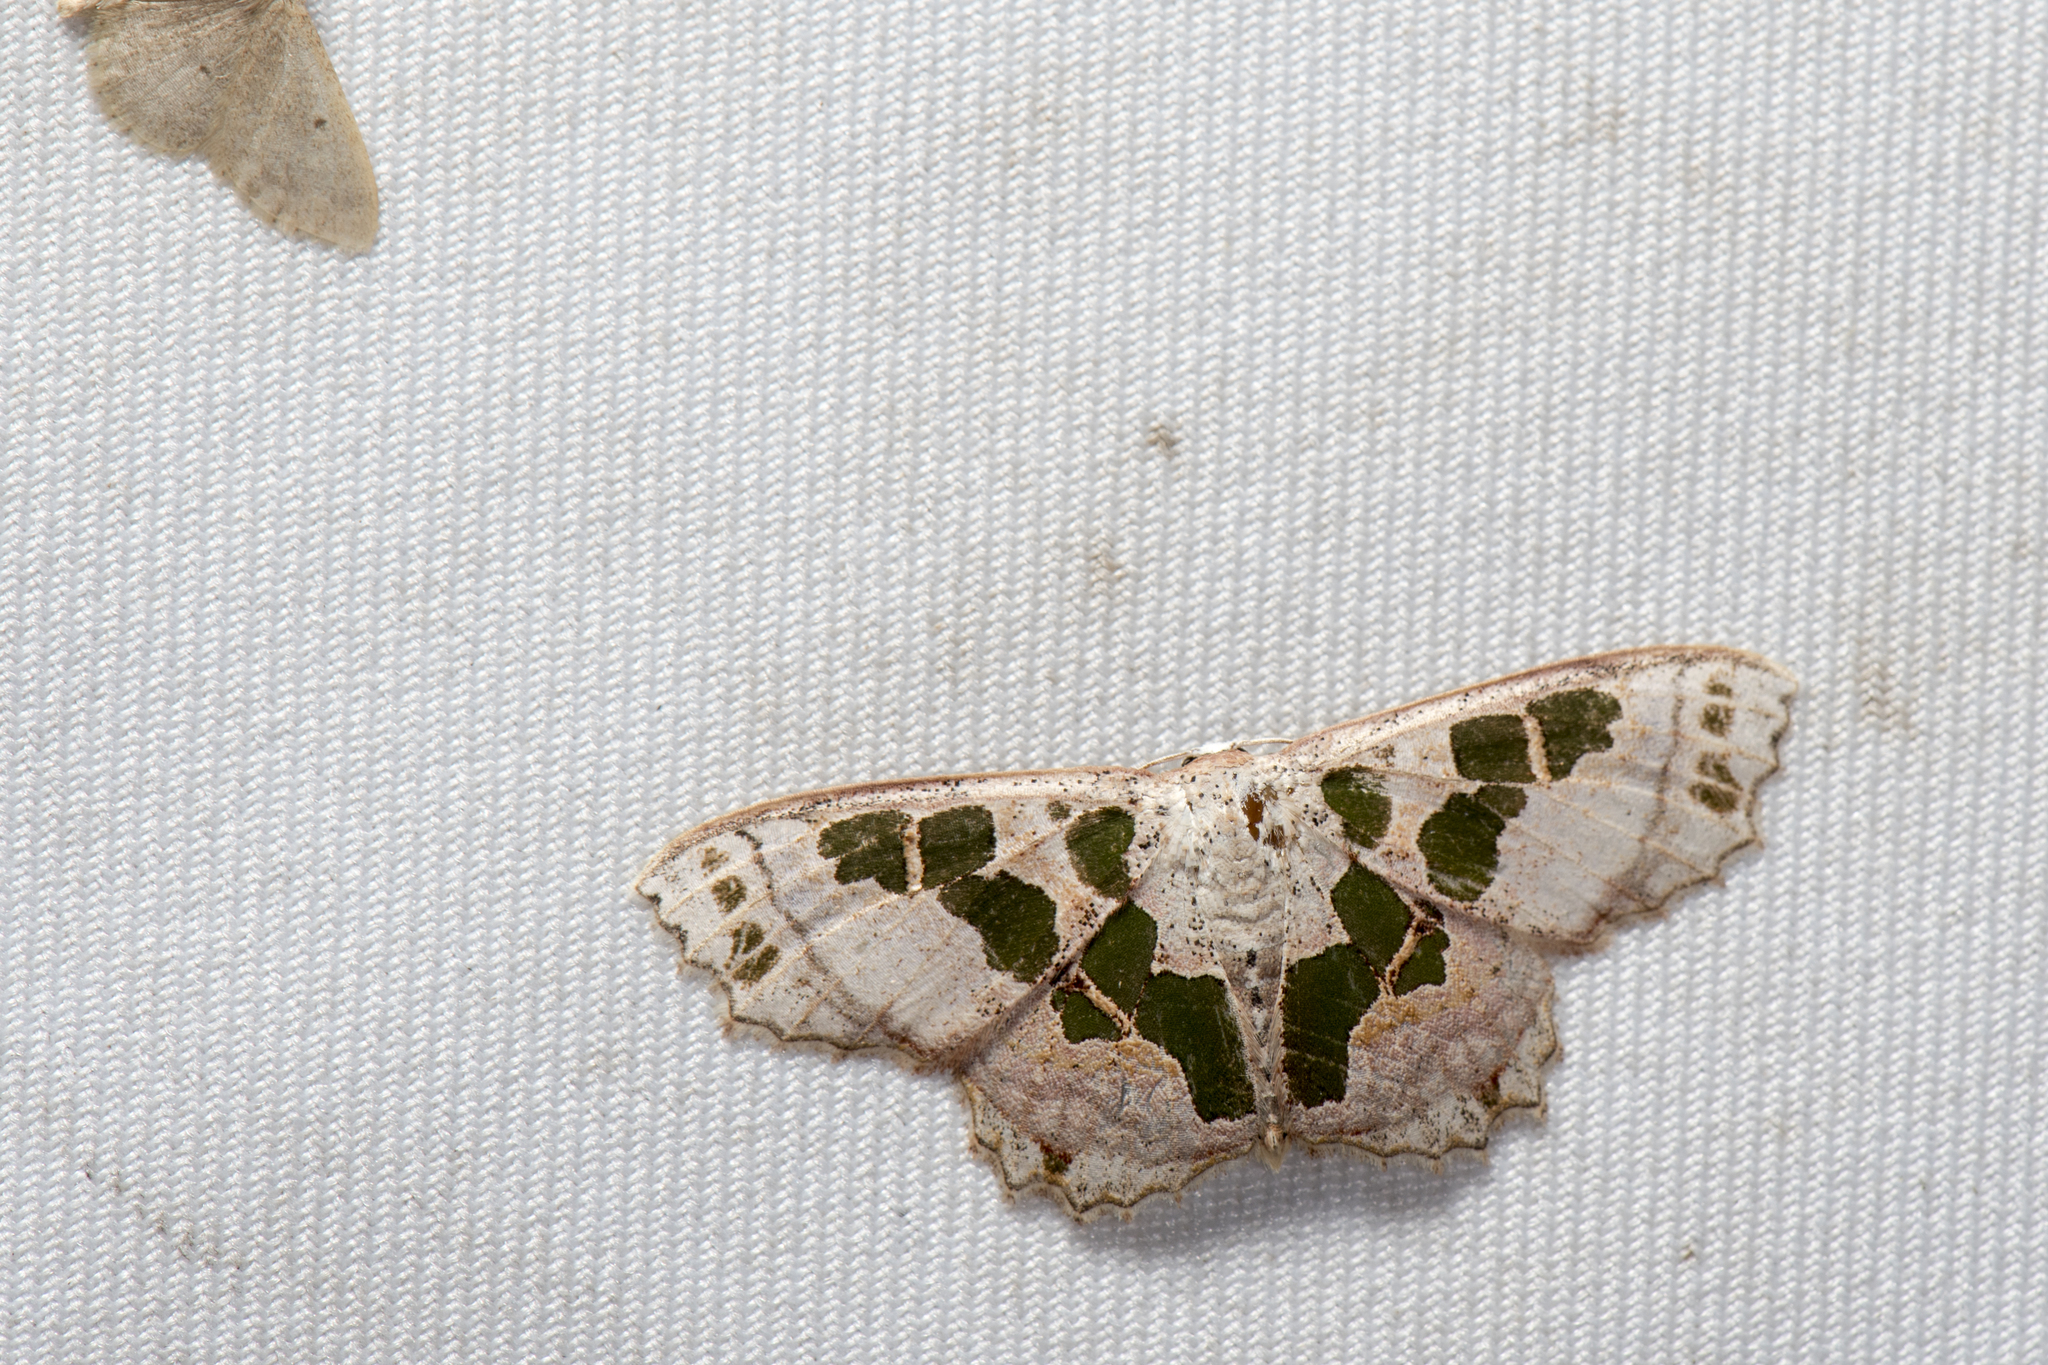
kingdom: Animalia
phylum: Arthropoda
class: Insecta
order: Lepidoptera
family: Geometridae
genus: Scopula
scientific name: Scopula divisaria
